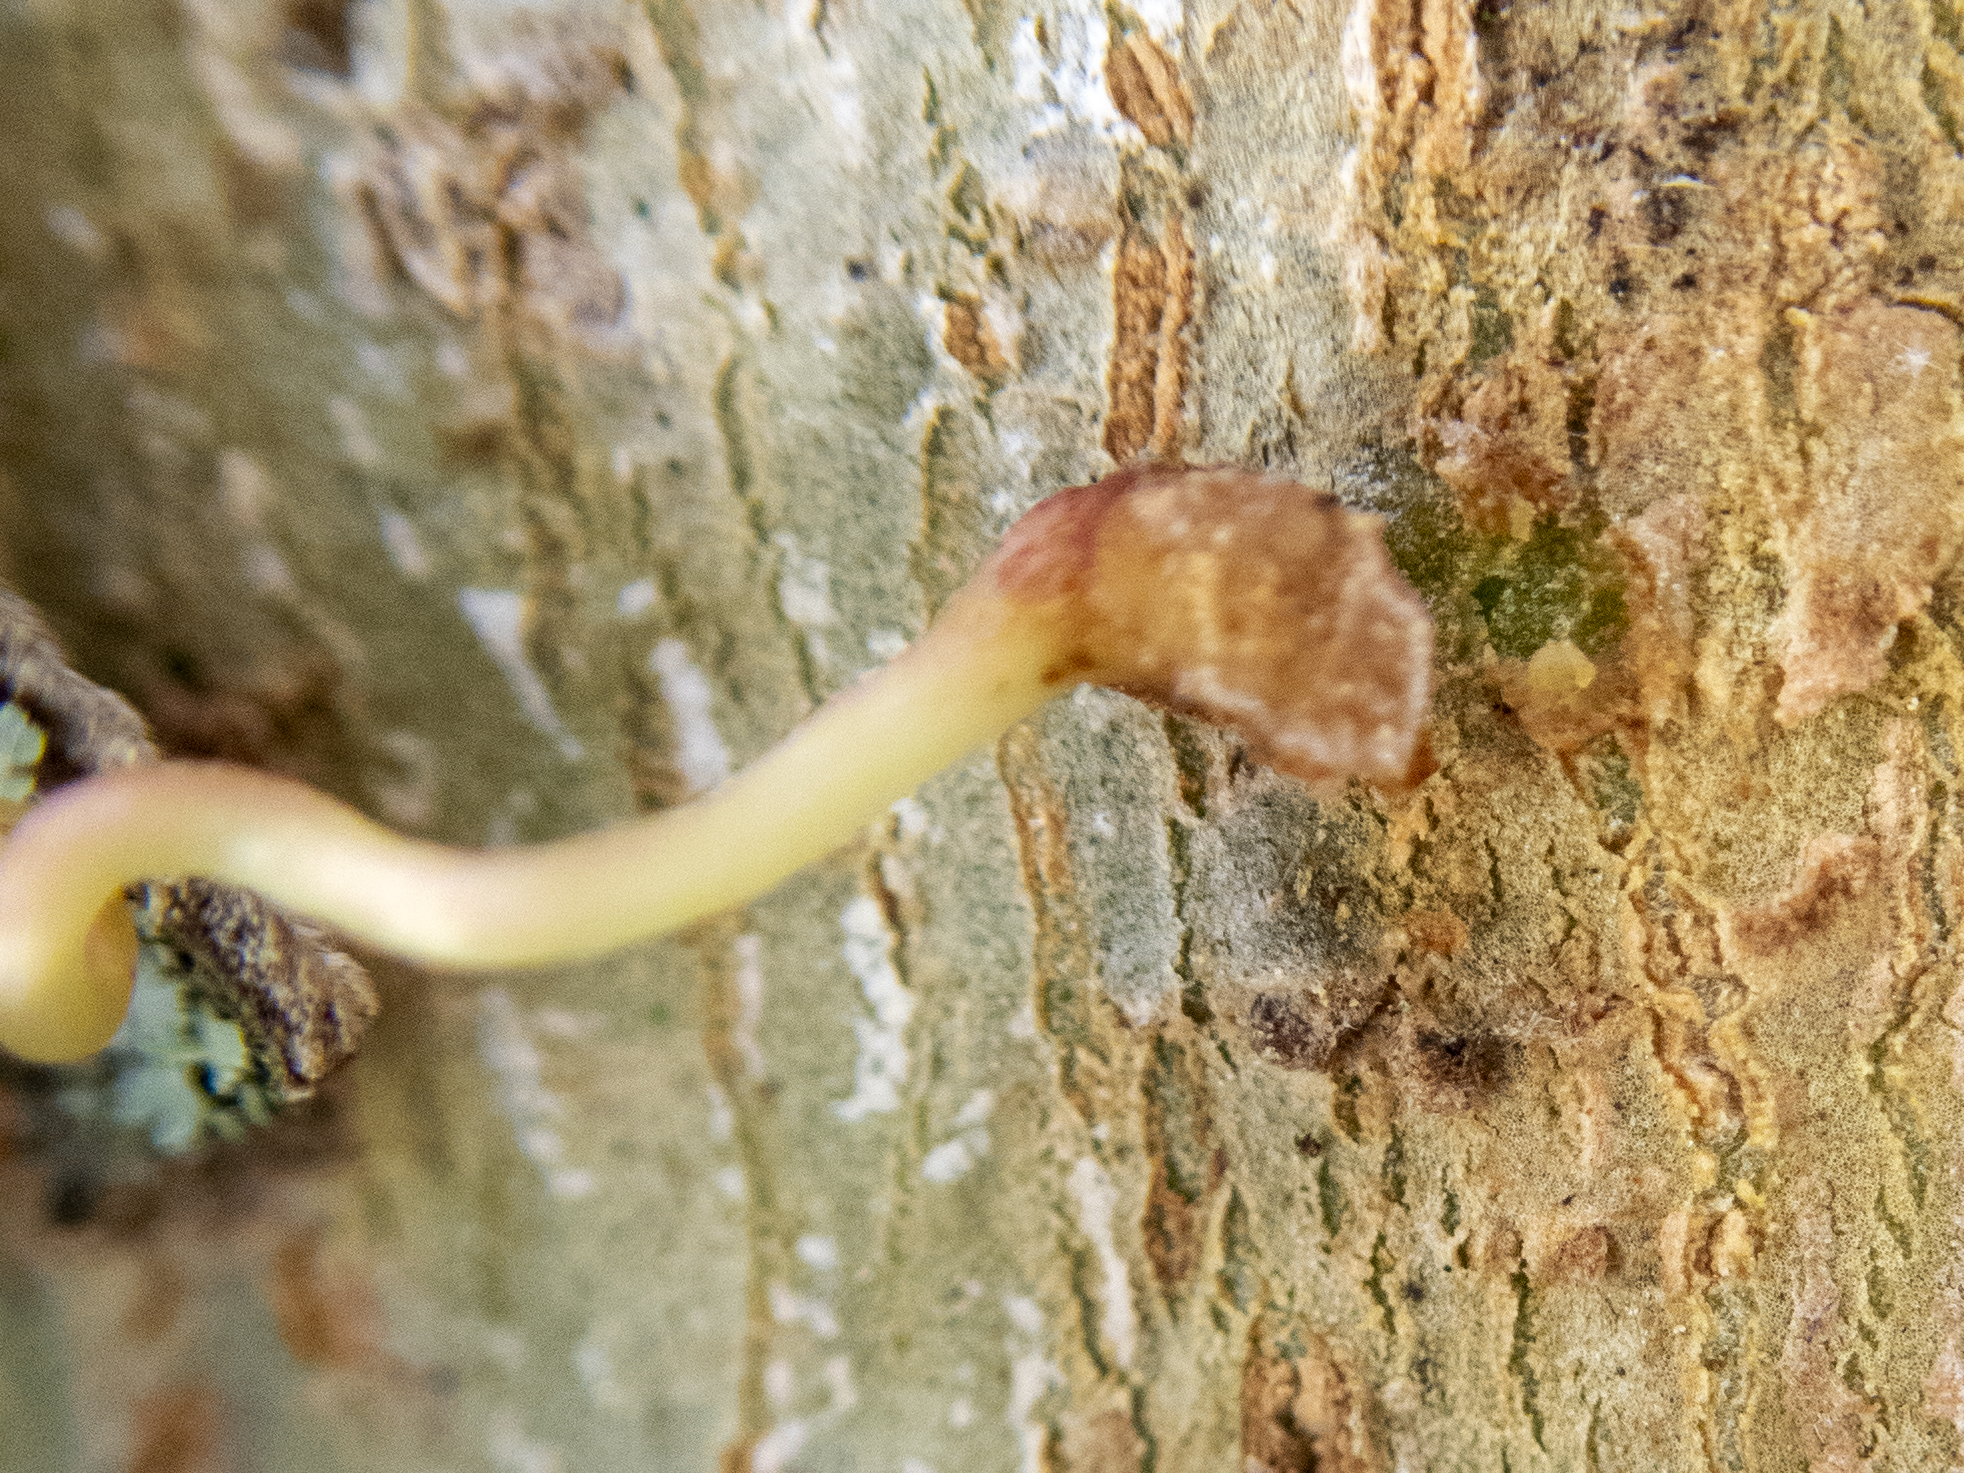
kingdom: Plantae
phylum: Tracheophyta
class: Magnoliopsida
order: Vitales
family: Vitaceae
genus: Parthenocissus
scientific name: Parthenocissus quinquefolia
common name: Virginia-creeper
